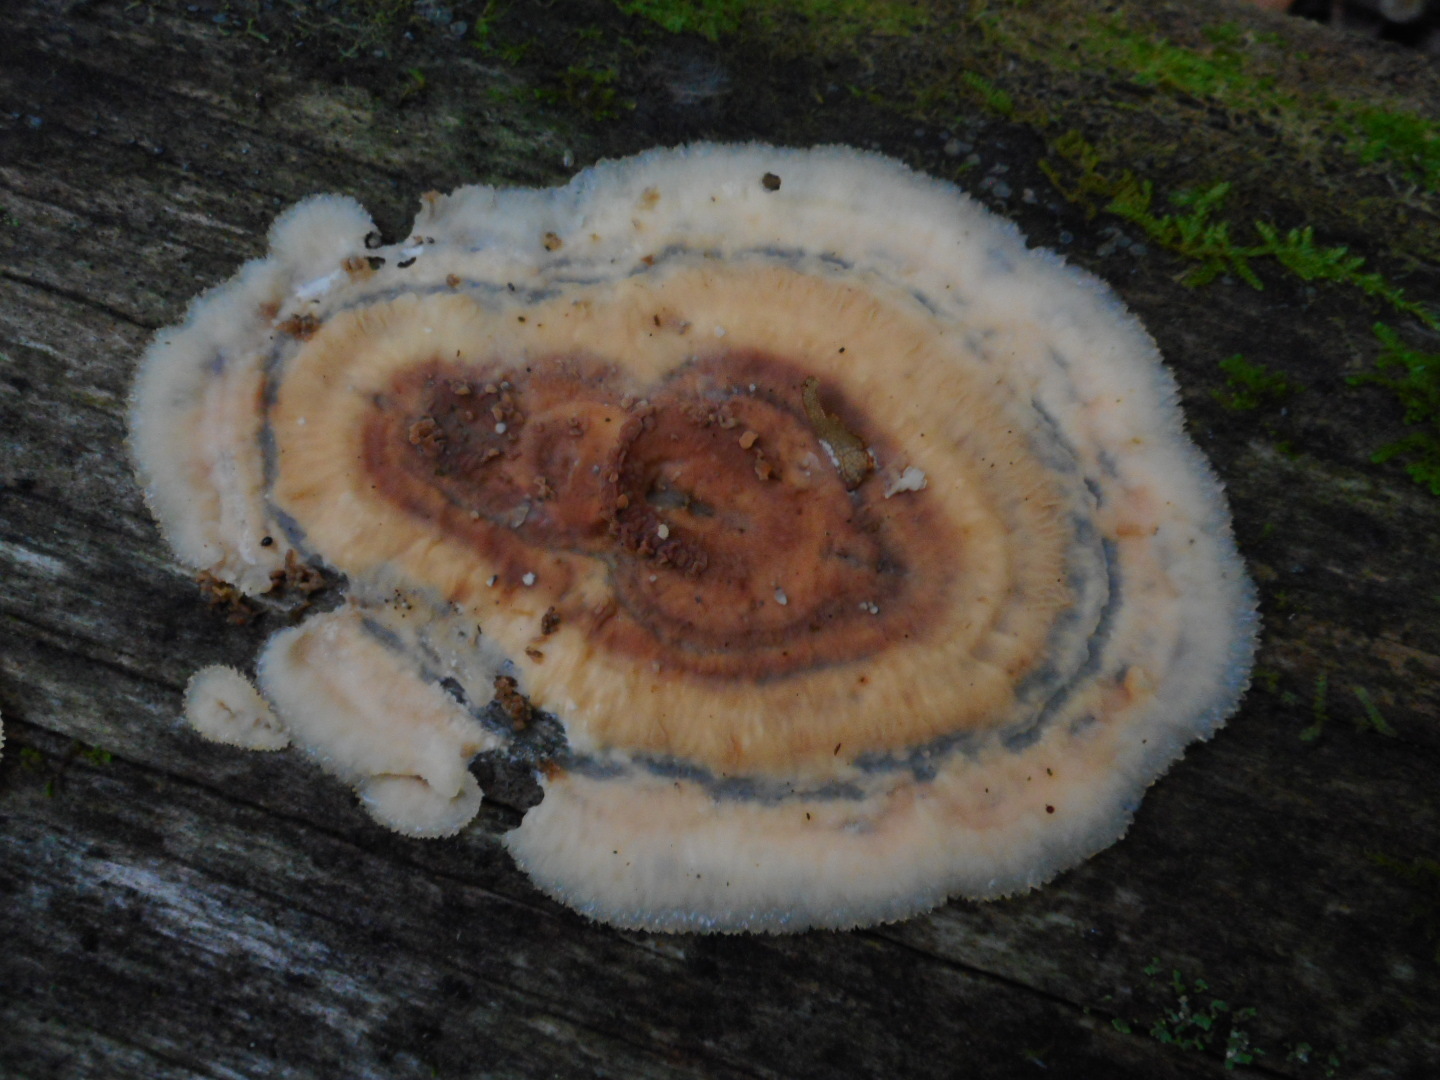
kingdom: Fungi
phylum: Basidiomycota
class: Agaricomycetes
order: Polyporales
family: Meruliaceae
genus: Phlebia
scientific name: Phlebia tremellosa
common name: Jelly rot
